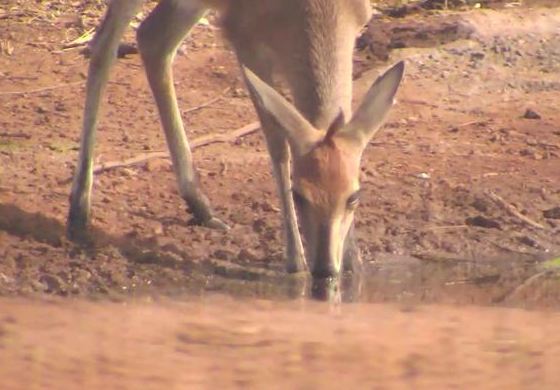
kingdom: Animalia
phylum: Chordata
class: Mammalia
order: Artiodactyla
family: Bovidae
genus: Sylvicapra
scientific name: Sylvicapra grimmia
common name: Bush duiker
